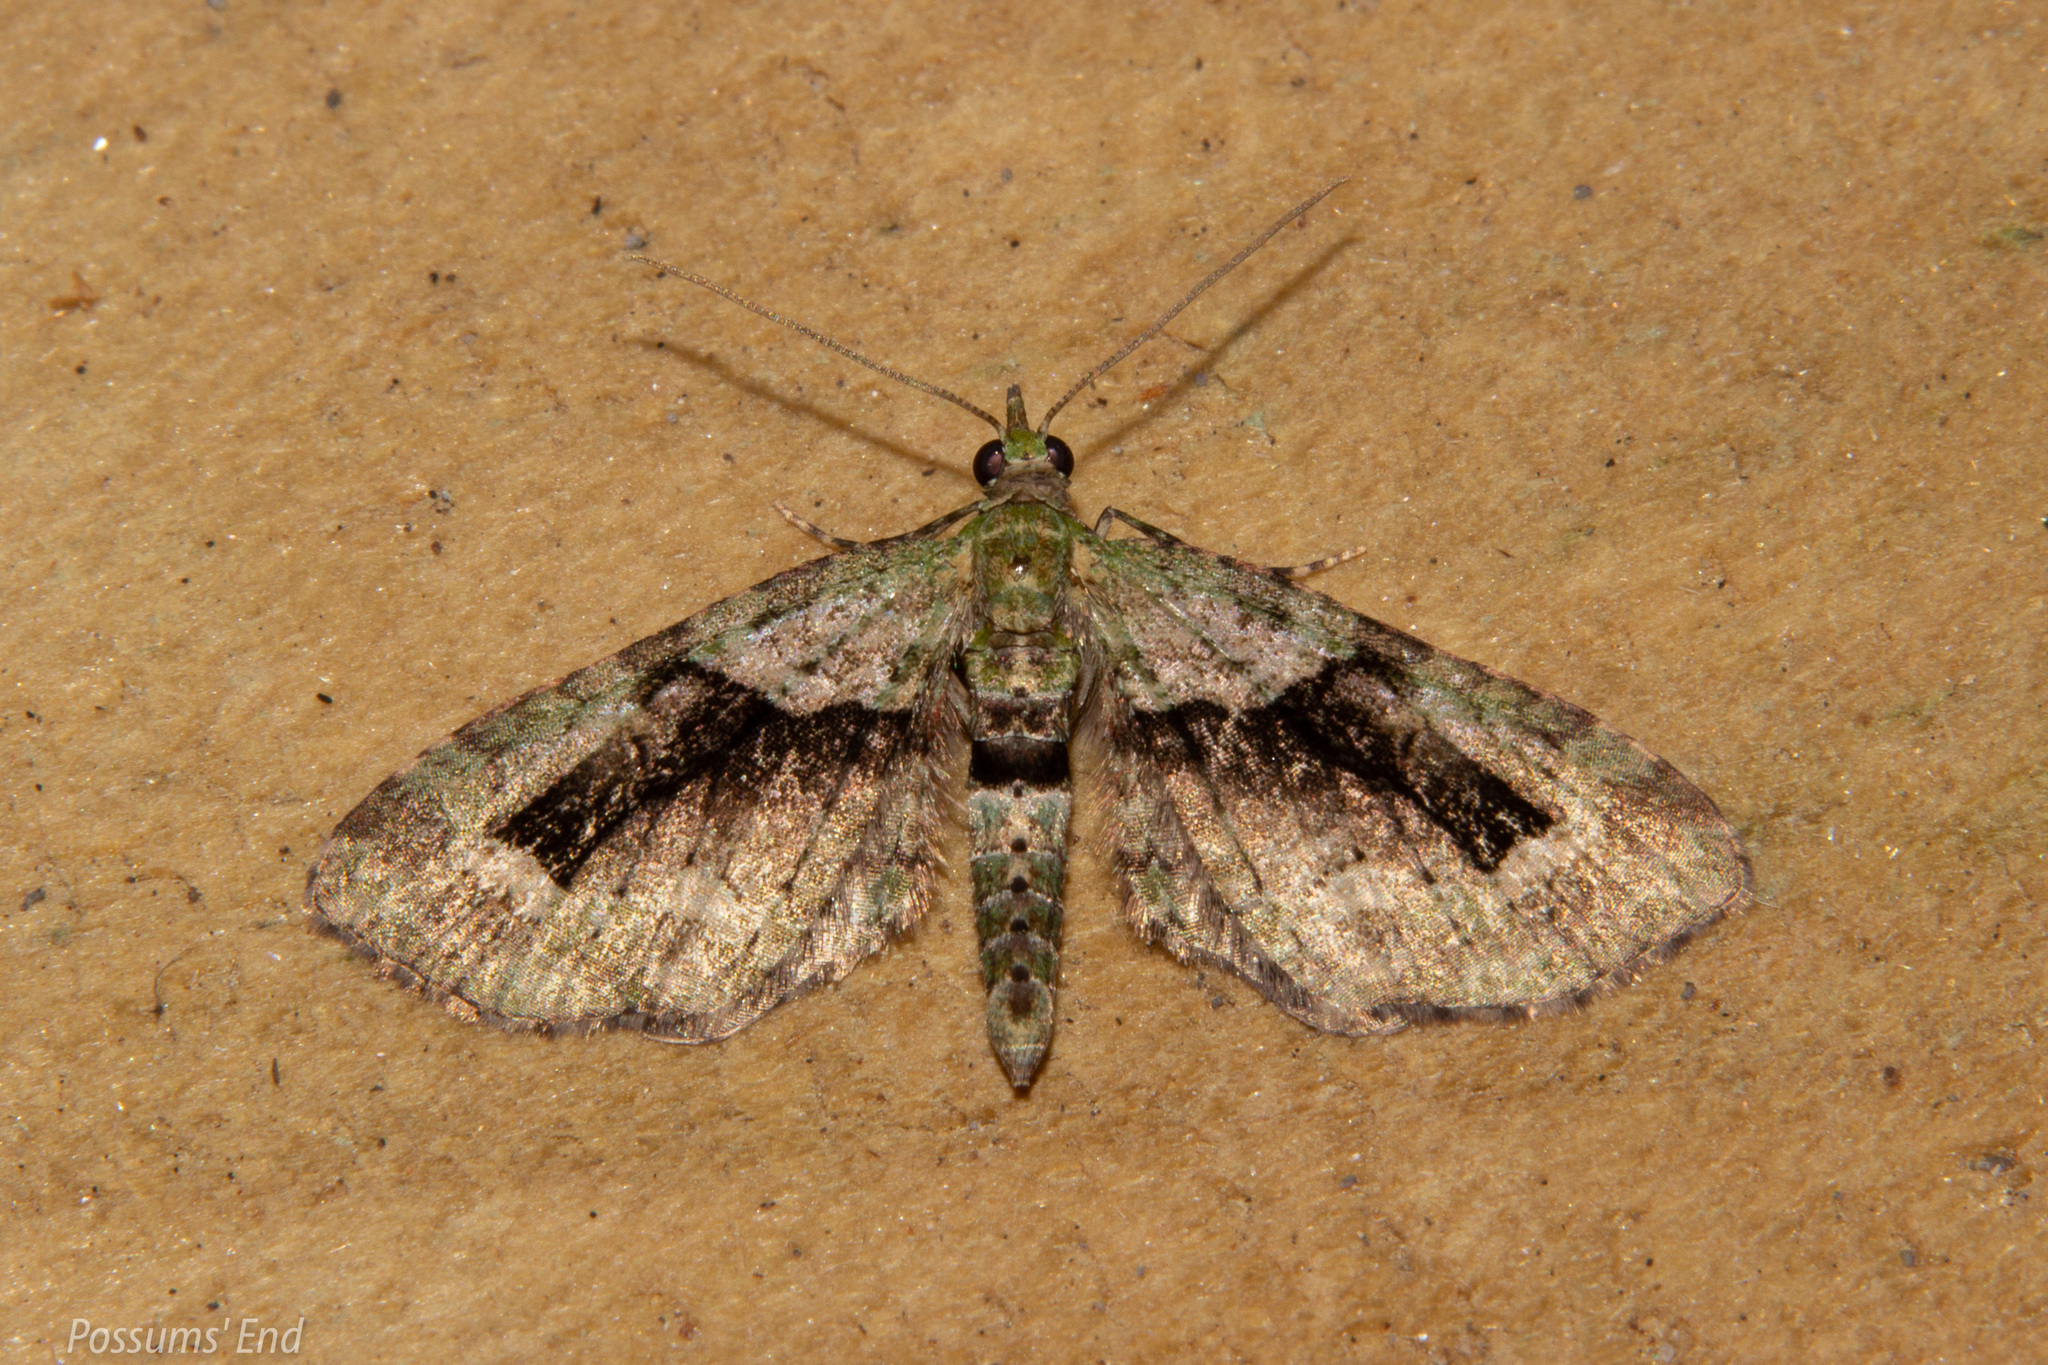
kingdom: Animalia
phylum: Arthropoda
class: Insecta
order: Lepidoptera
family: Geometridae
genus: Pasiphila
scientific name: Pasiphila suffusa
